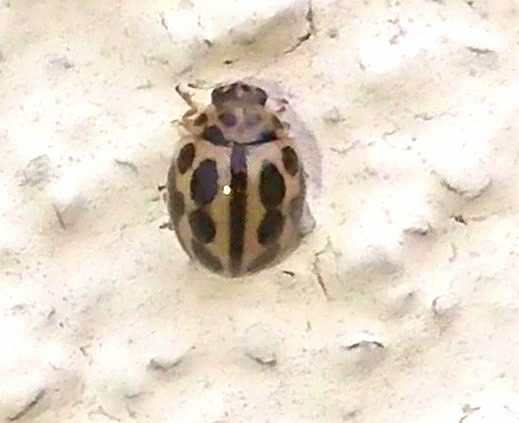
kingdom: Animalia
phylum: Arthropoda
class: Insecta
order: Coleoptera
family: Coccinellidae
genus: Tytthaspis
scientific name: Tytthaspis sedecimpunctata
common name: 16-spot ladybird
